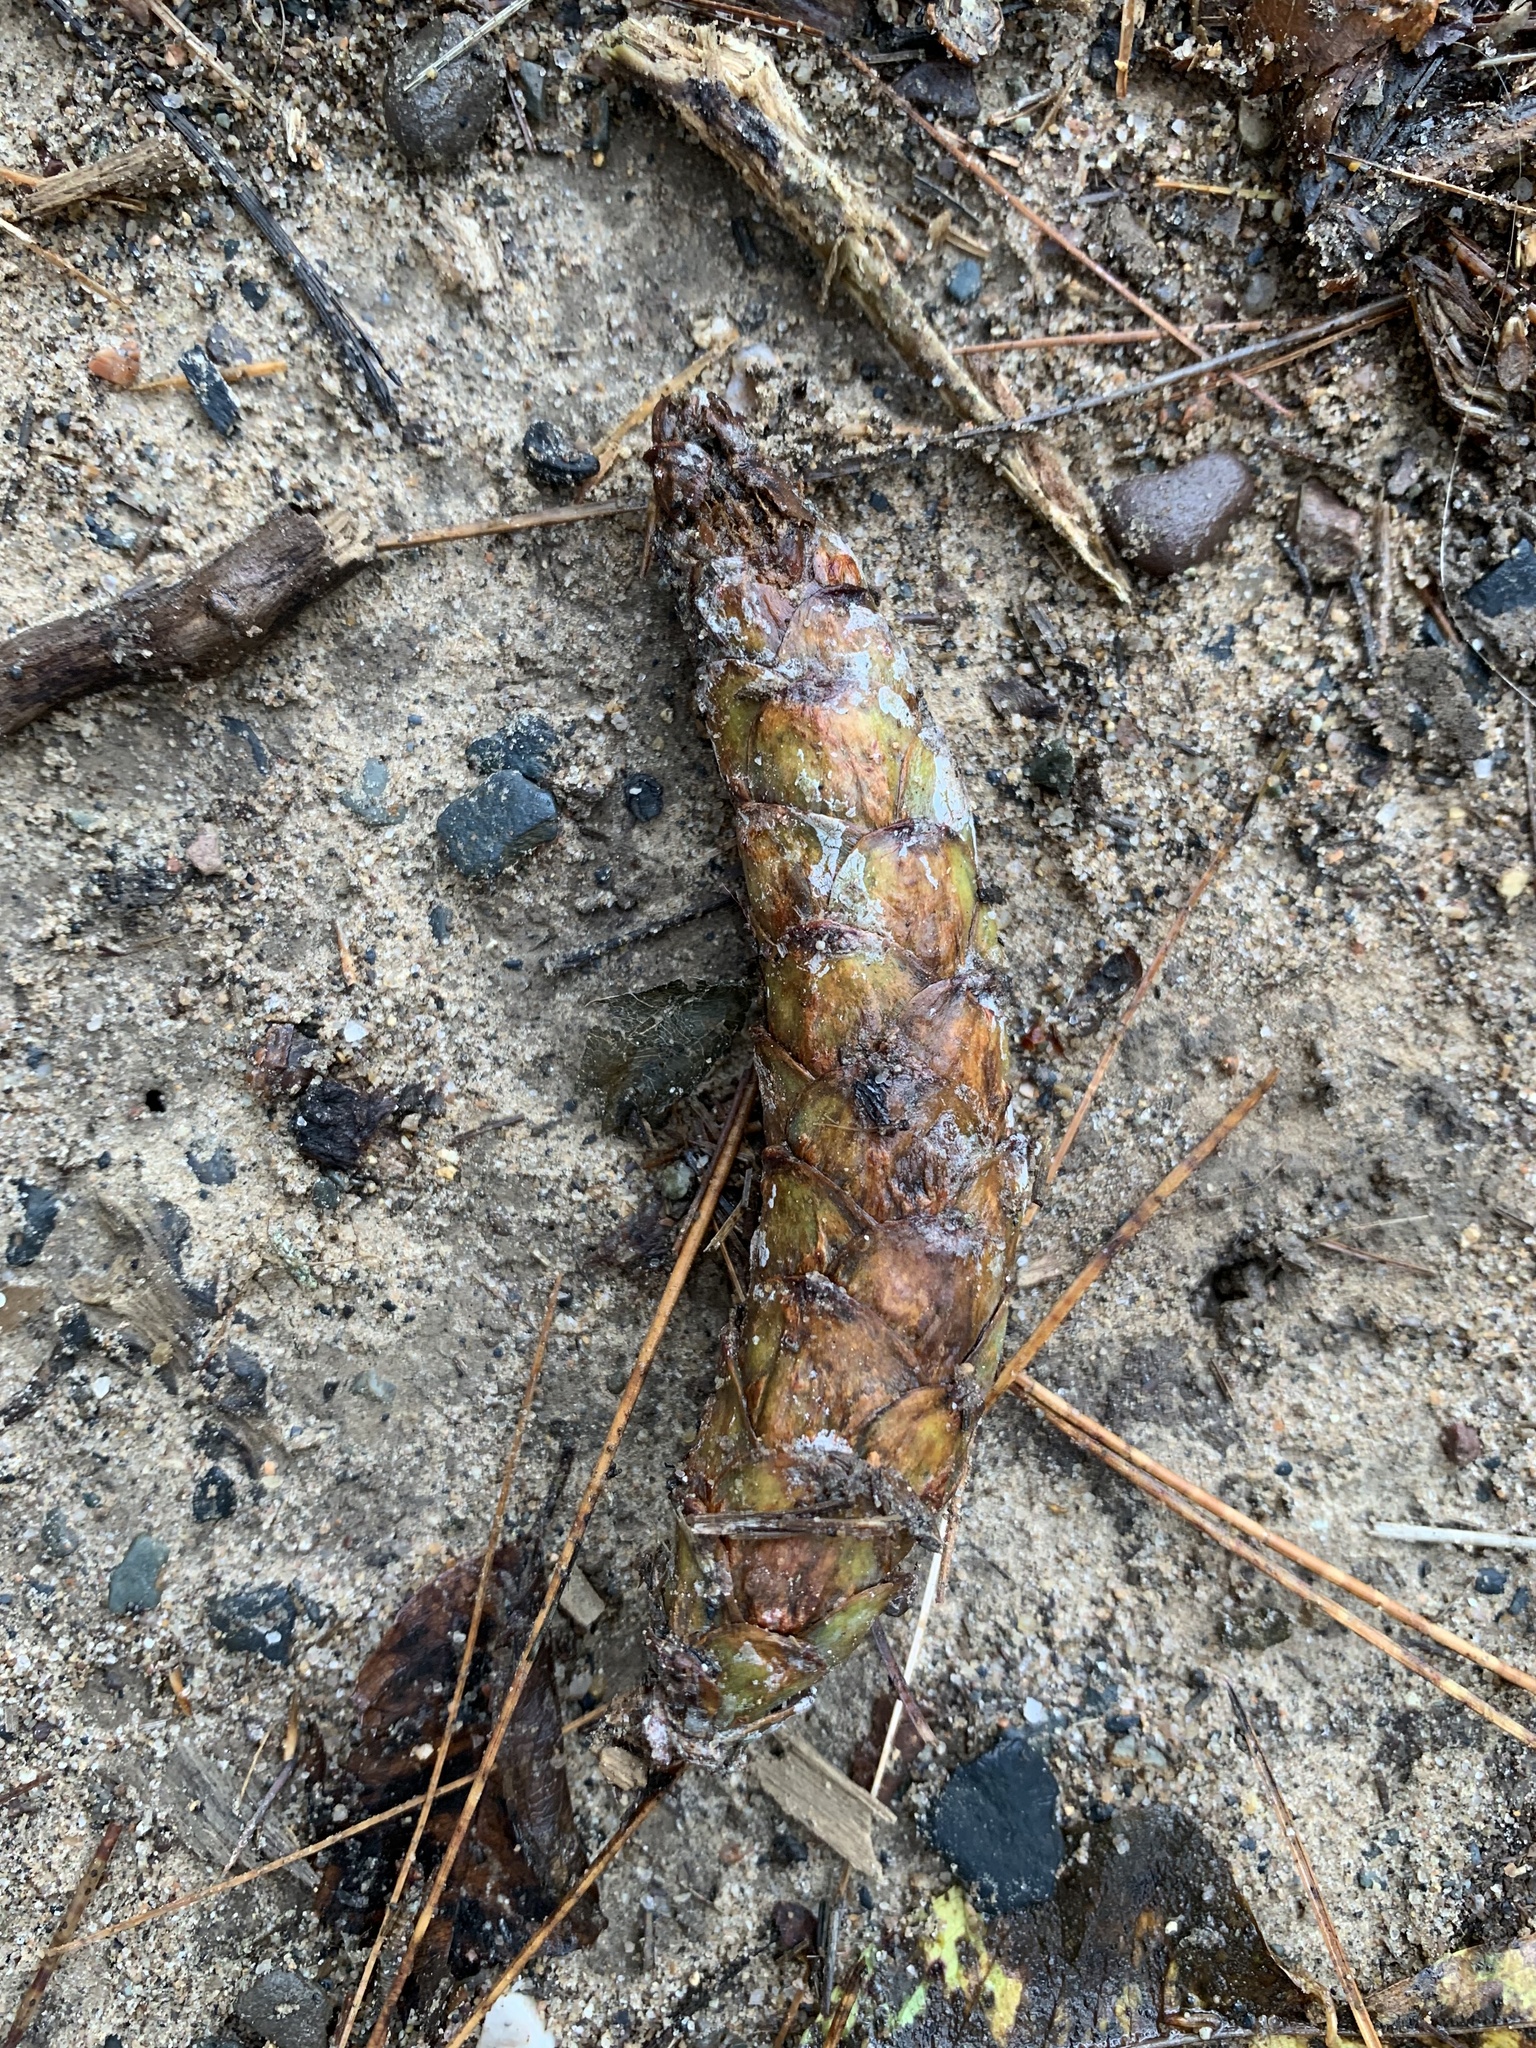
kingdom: Plantae
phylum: Tracheophyta
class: Pinopsida
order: Pinales
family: Pinaceae
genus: Pinus
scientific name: Pinus strobus
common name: Weymouth pine
